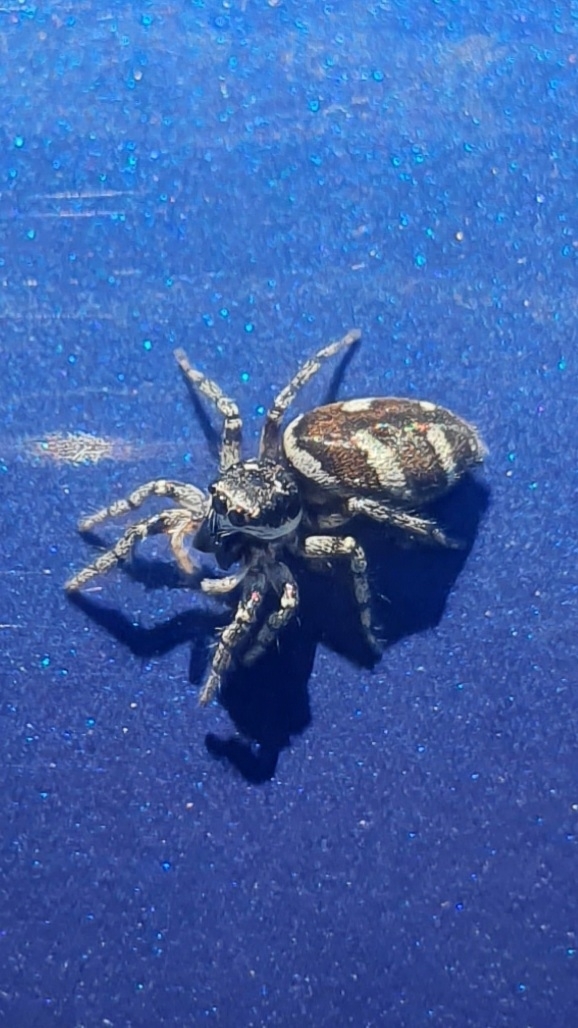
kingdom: Animalia
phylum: Arthropoda
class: Arachnida
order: Araneae
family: Salticidae
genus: Salticus
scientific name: Salticus scenicus
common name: Zebra jumper
